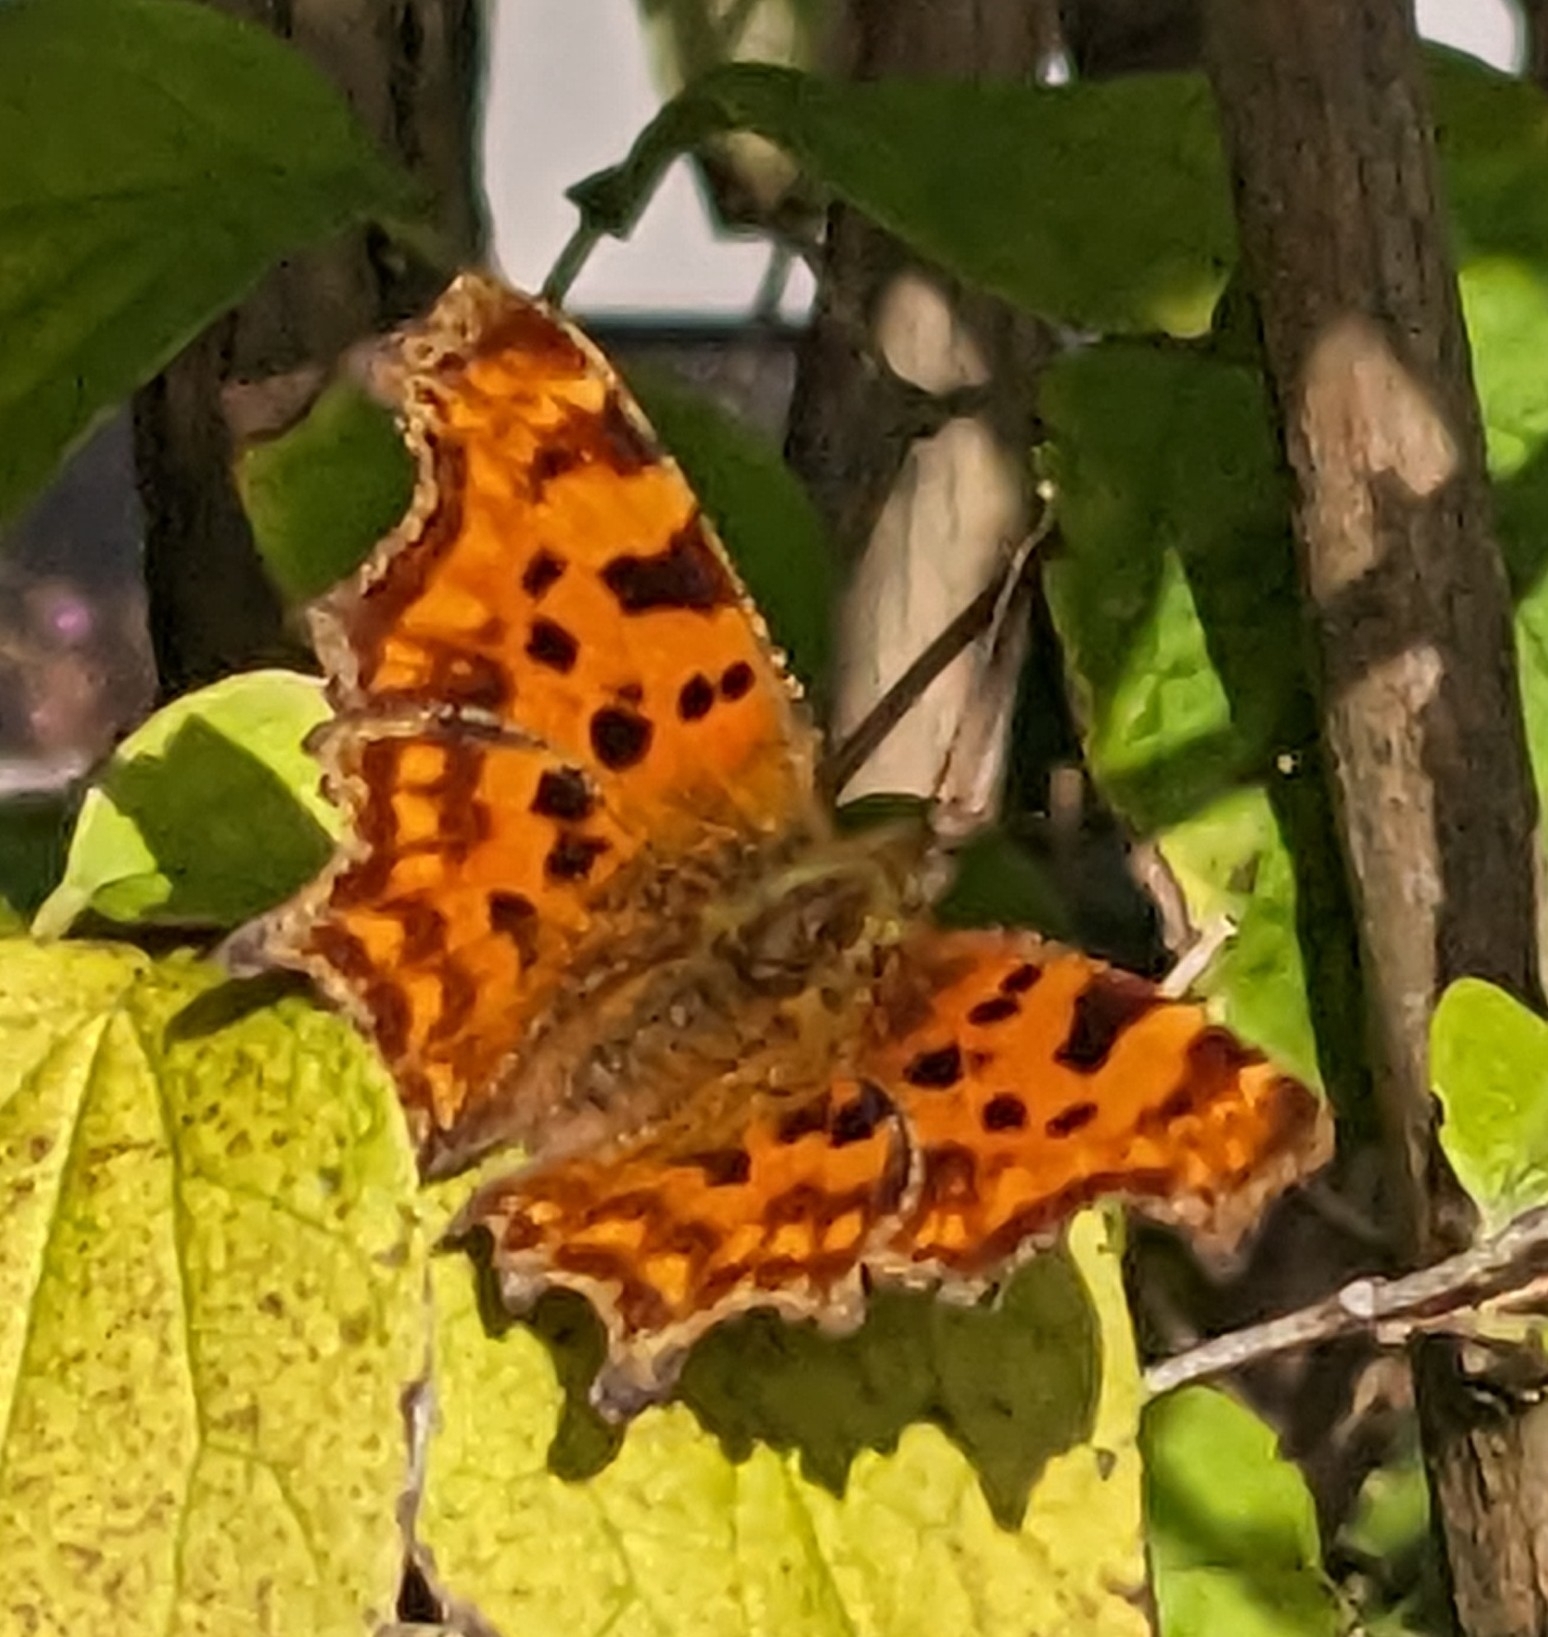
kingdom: Animalia
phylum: Arthropoda
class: Insecta
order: Lepidoptera
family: Nymphalidae
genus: Polygonia
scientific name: Polygonia c-album
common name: Comma
